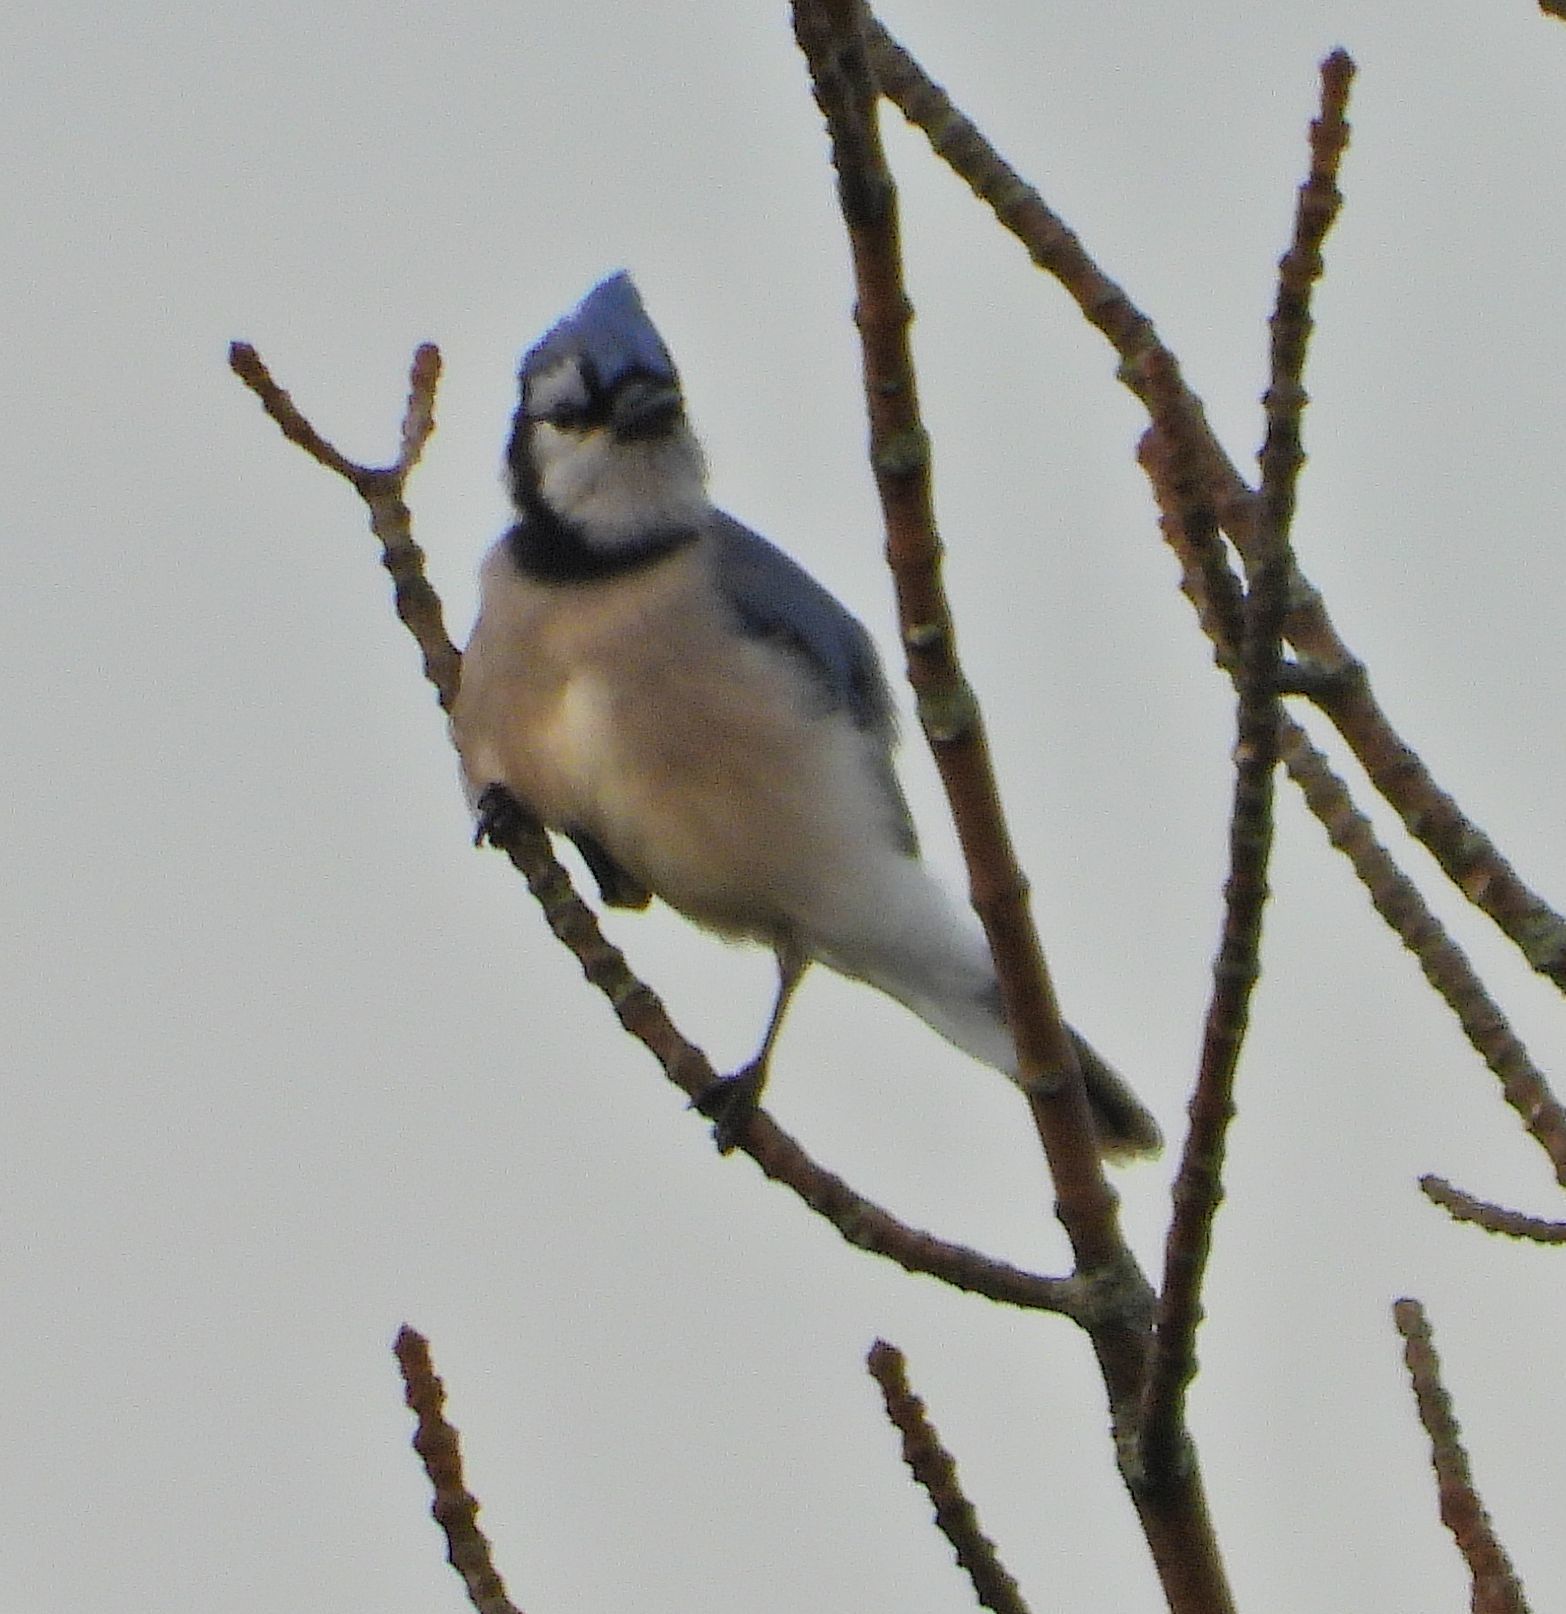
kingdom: Animalia
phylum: Chordata
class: Aves
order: Passeriformes
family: Corvidae
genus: Cyanocitta
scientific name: Cyanocitta cristata
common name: Blue jay
